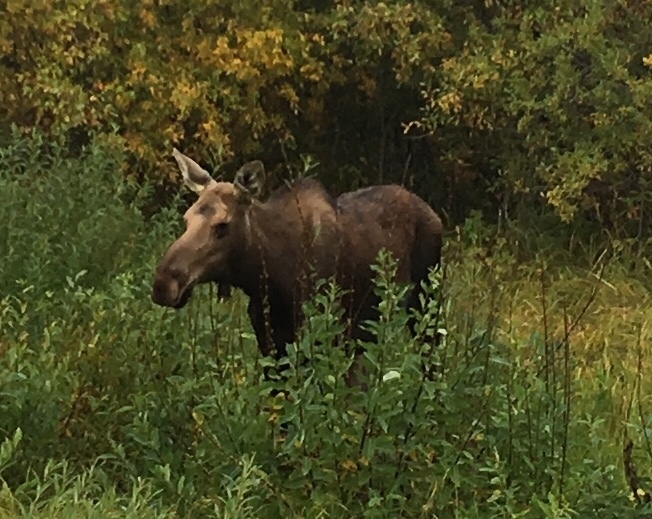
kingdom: Animalia
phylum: Chordata
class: Mammalia
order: Artiodactyla
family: Cervidae
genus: Alces
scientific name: Alces alces
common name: Moose
